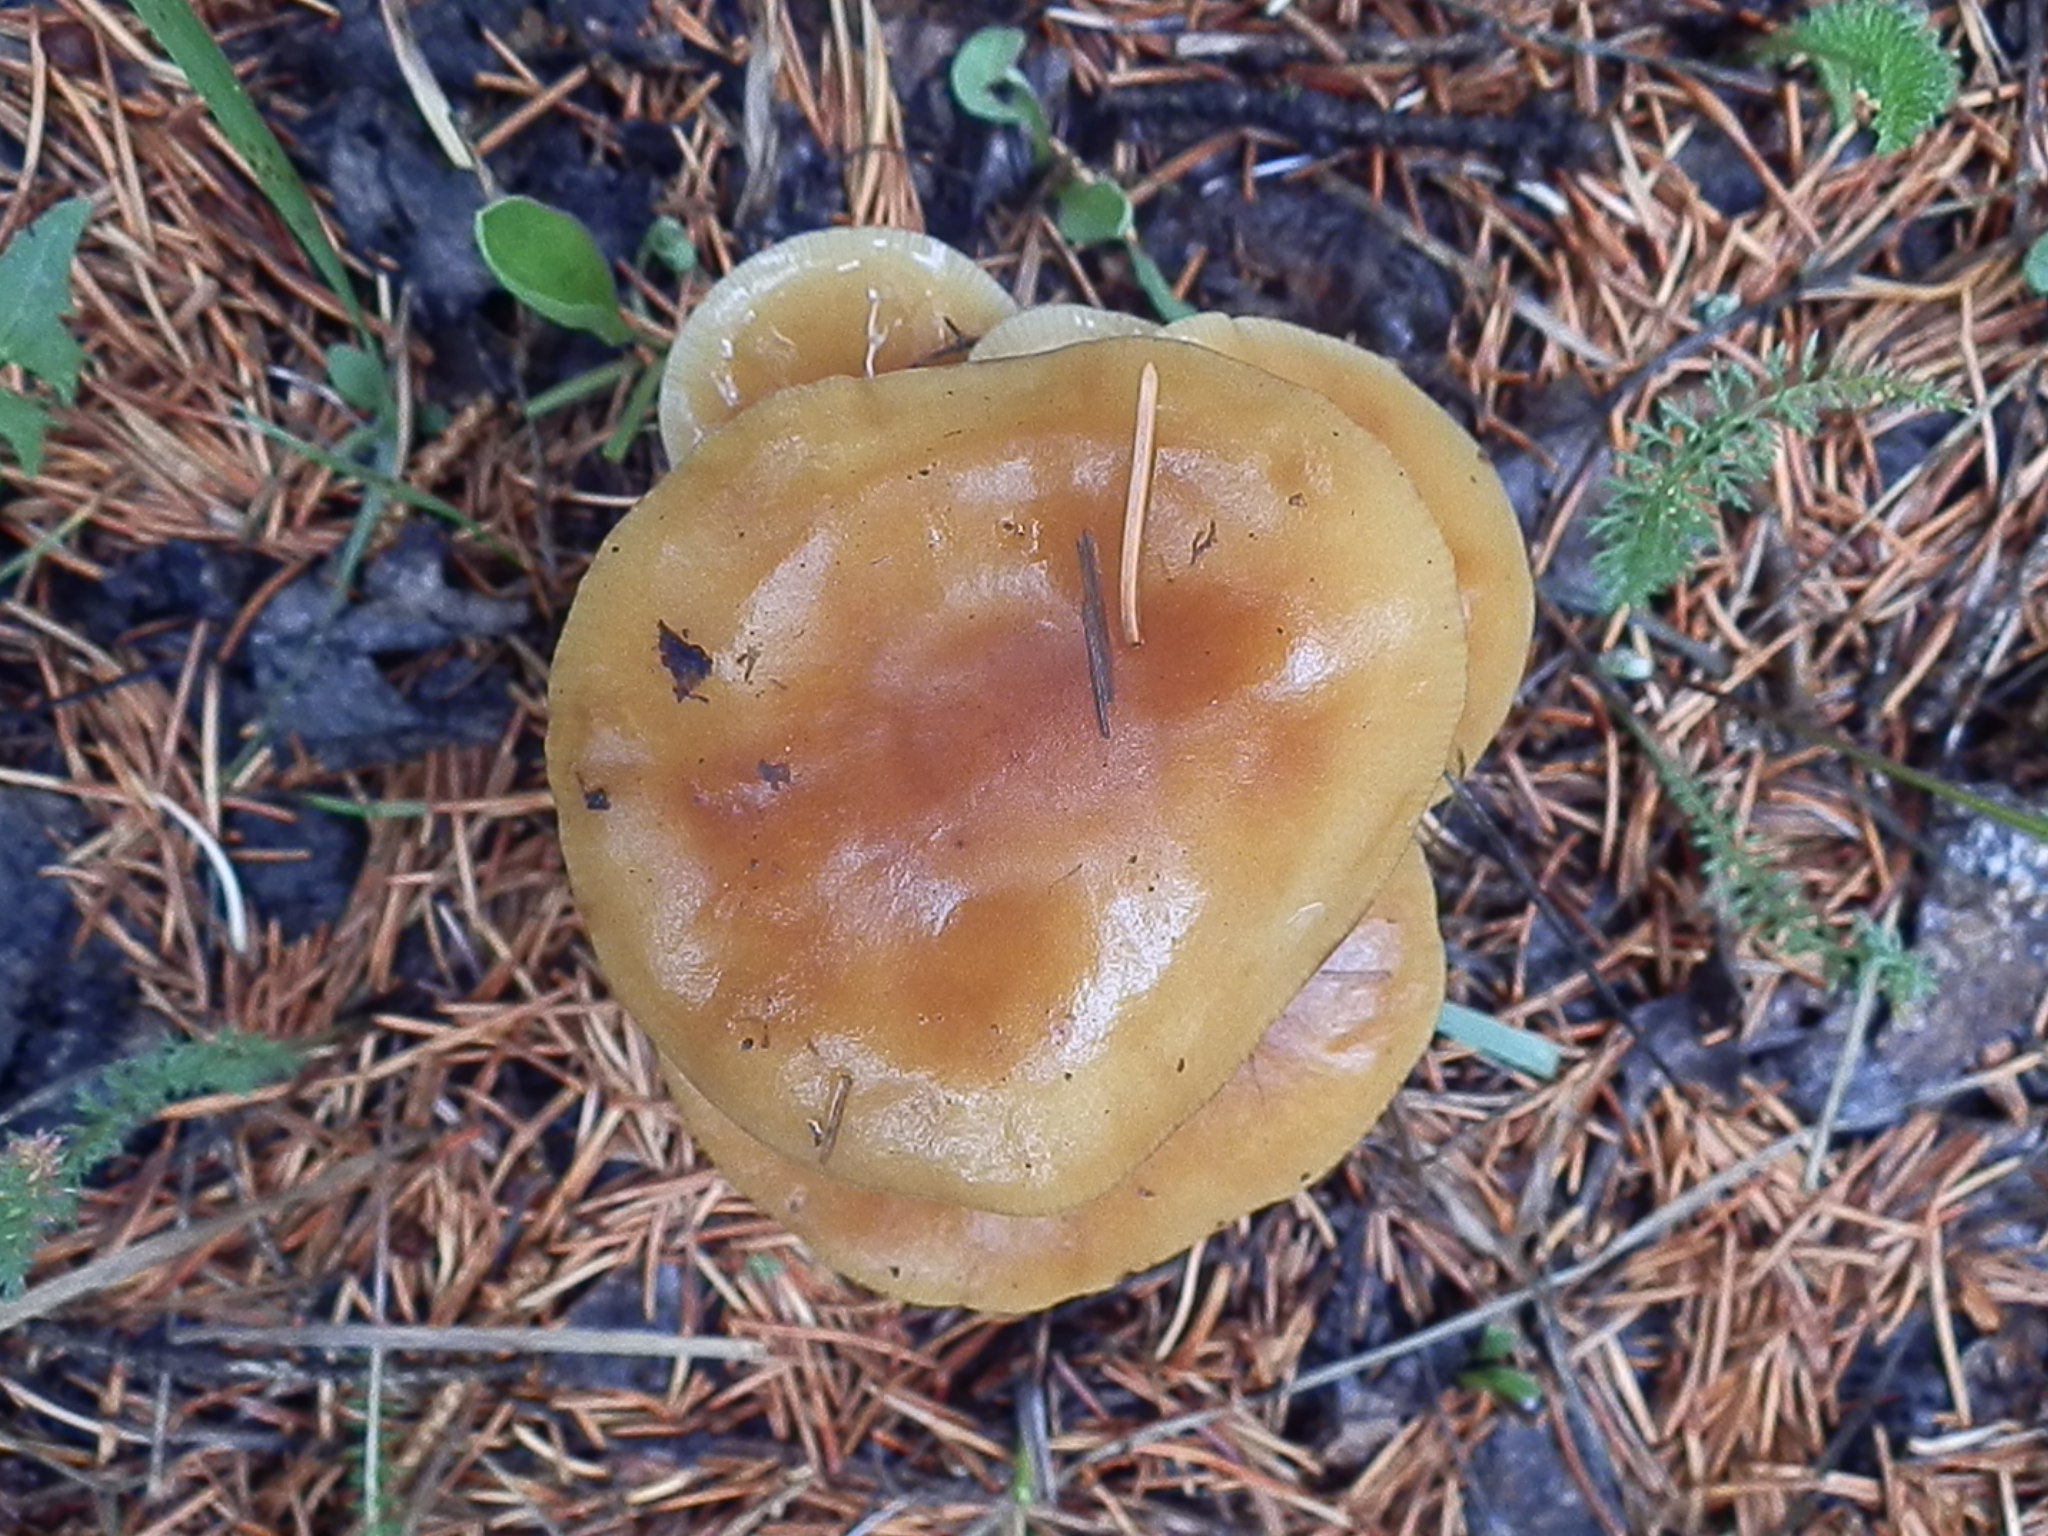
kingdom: Fungi
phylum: Basidiomycota
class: Agaricomycetes
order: Agaricales
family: Physalacriaceae
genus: Flammulina
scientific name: Flammulina populicola
